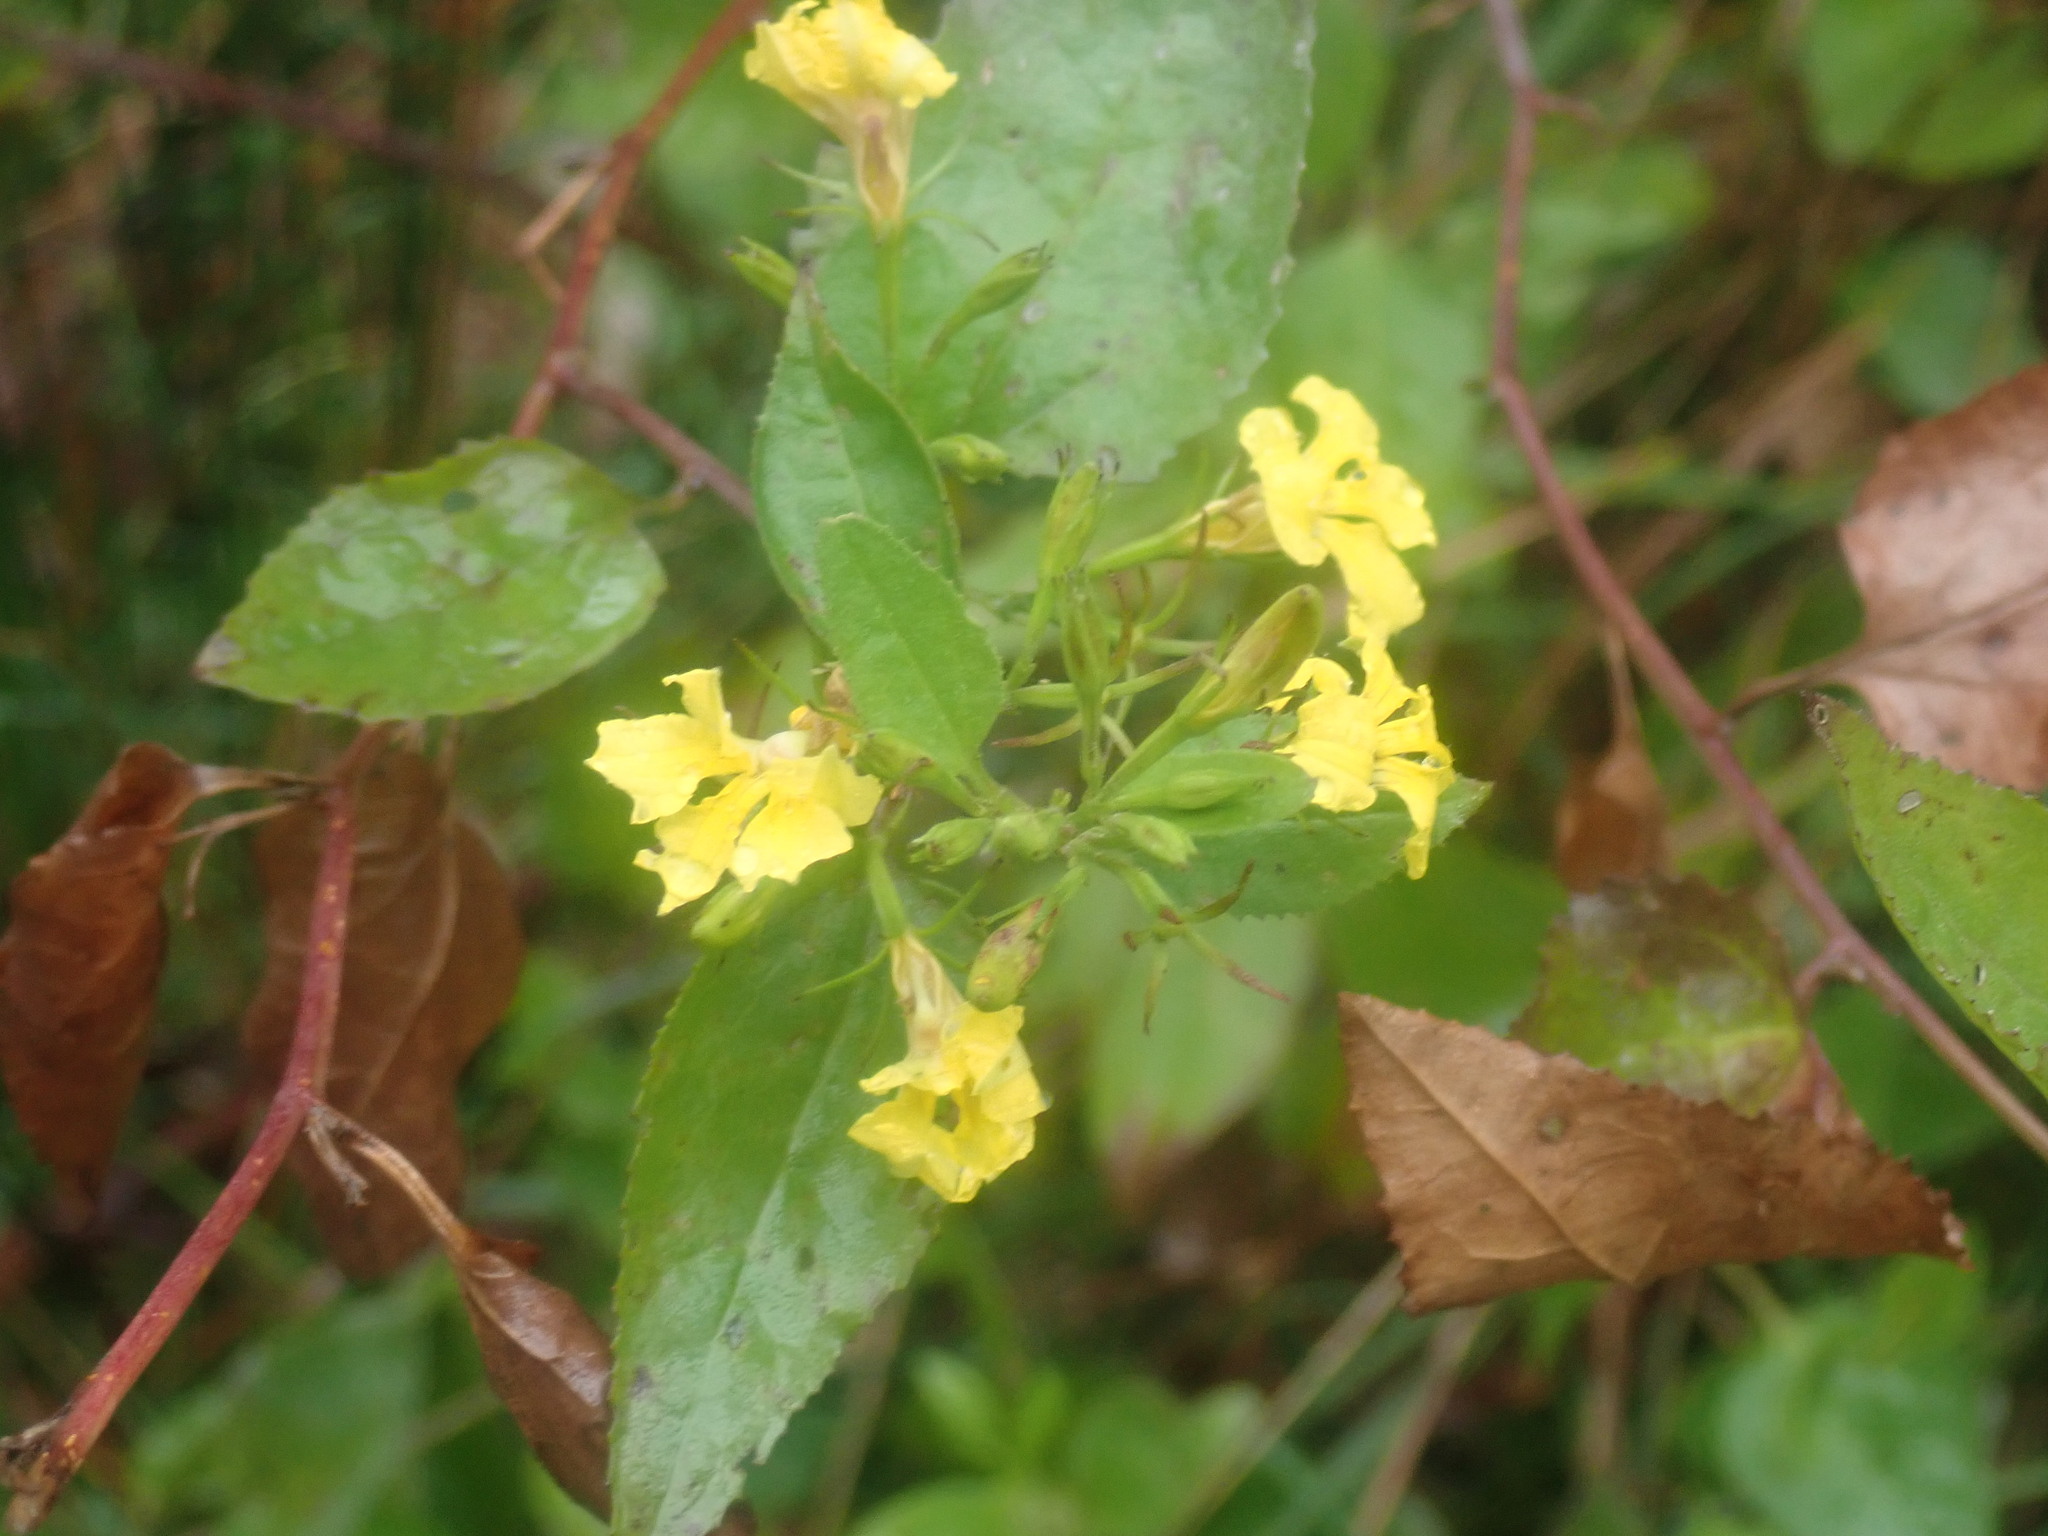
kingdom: Plantae
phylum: Tracheophyta
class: Magnoliopsida
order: Asterales
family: Goodeniaceae
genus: Goodenia
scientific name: Goodenia ovata
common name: Hop goodenia
